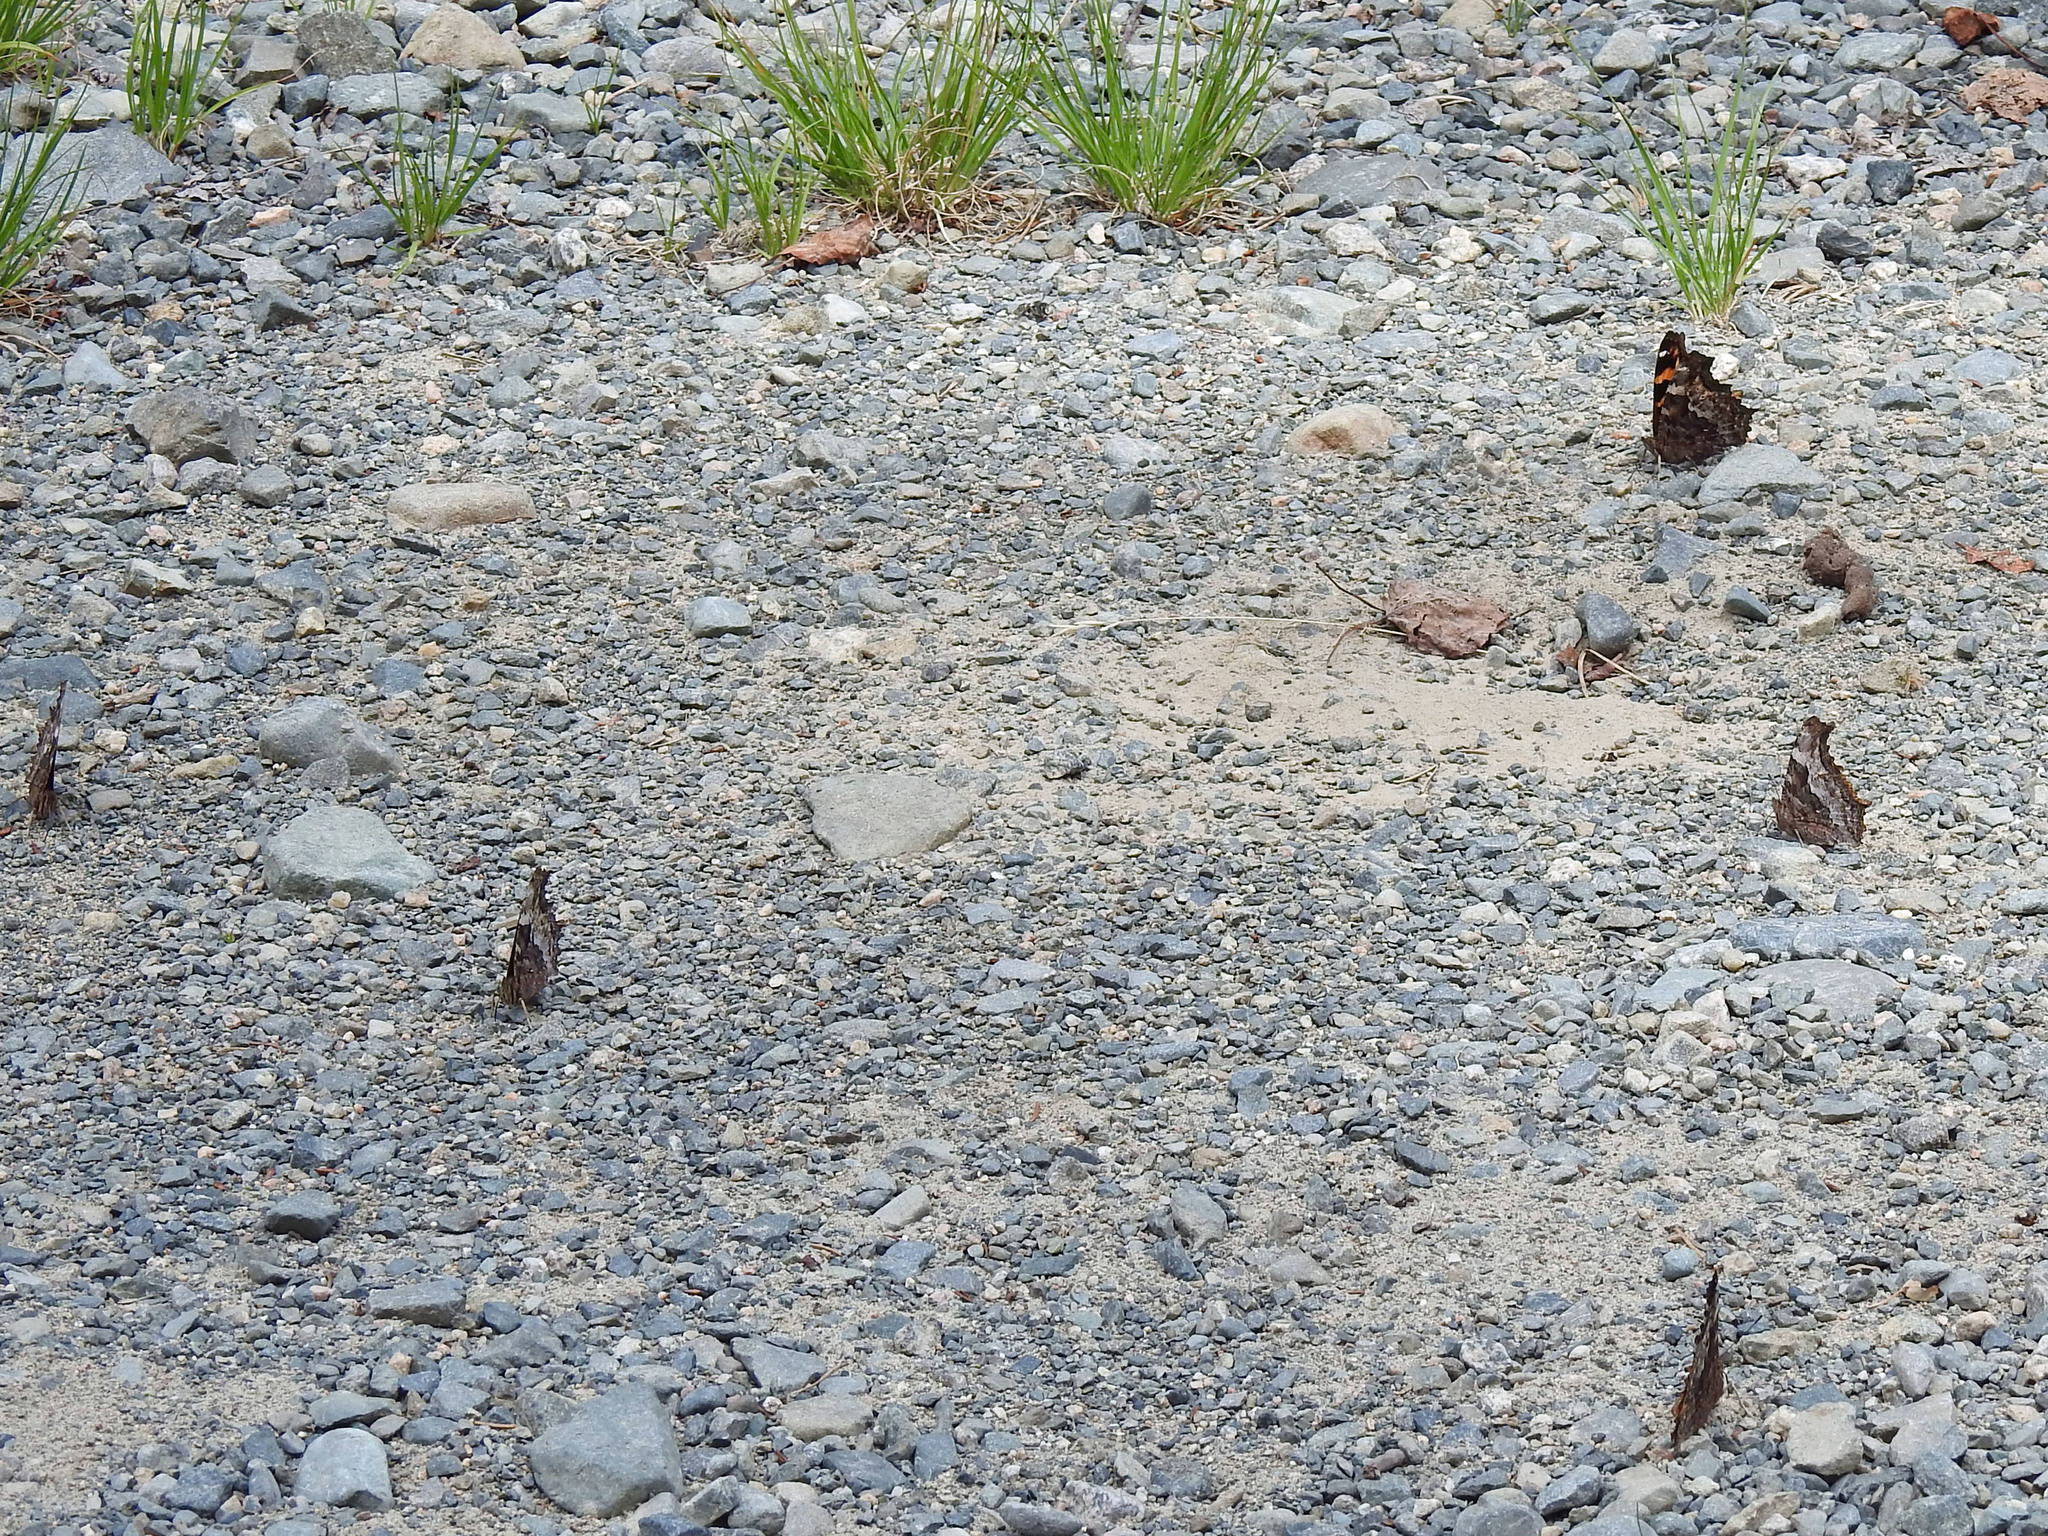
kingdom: Animalia
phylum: Arthropoda
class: Insecta
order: Lepidoptera
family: Nymphalidae
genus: Polygonia
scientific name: Polygonia vaualbum
